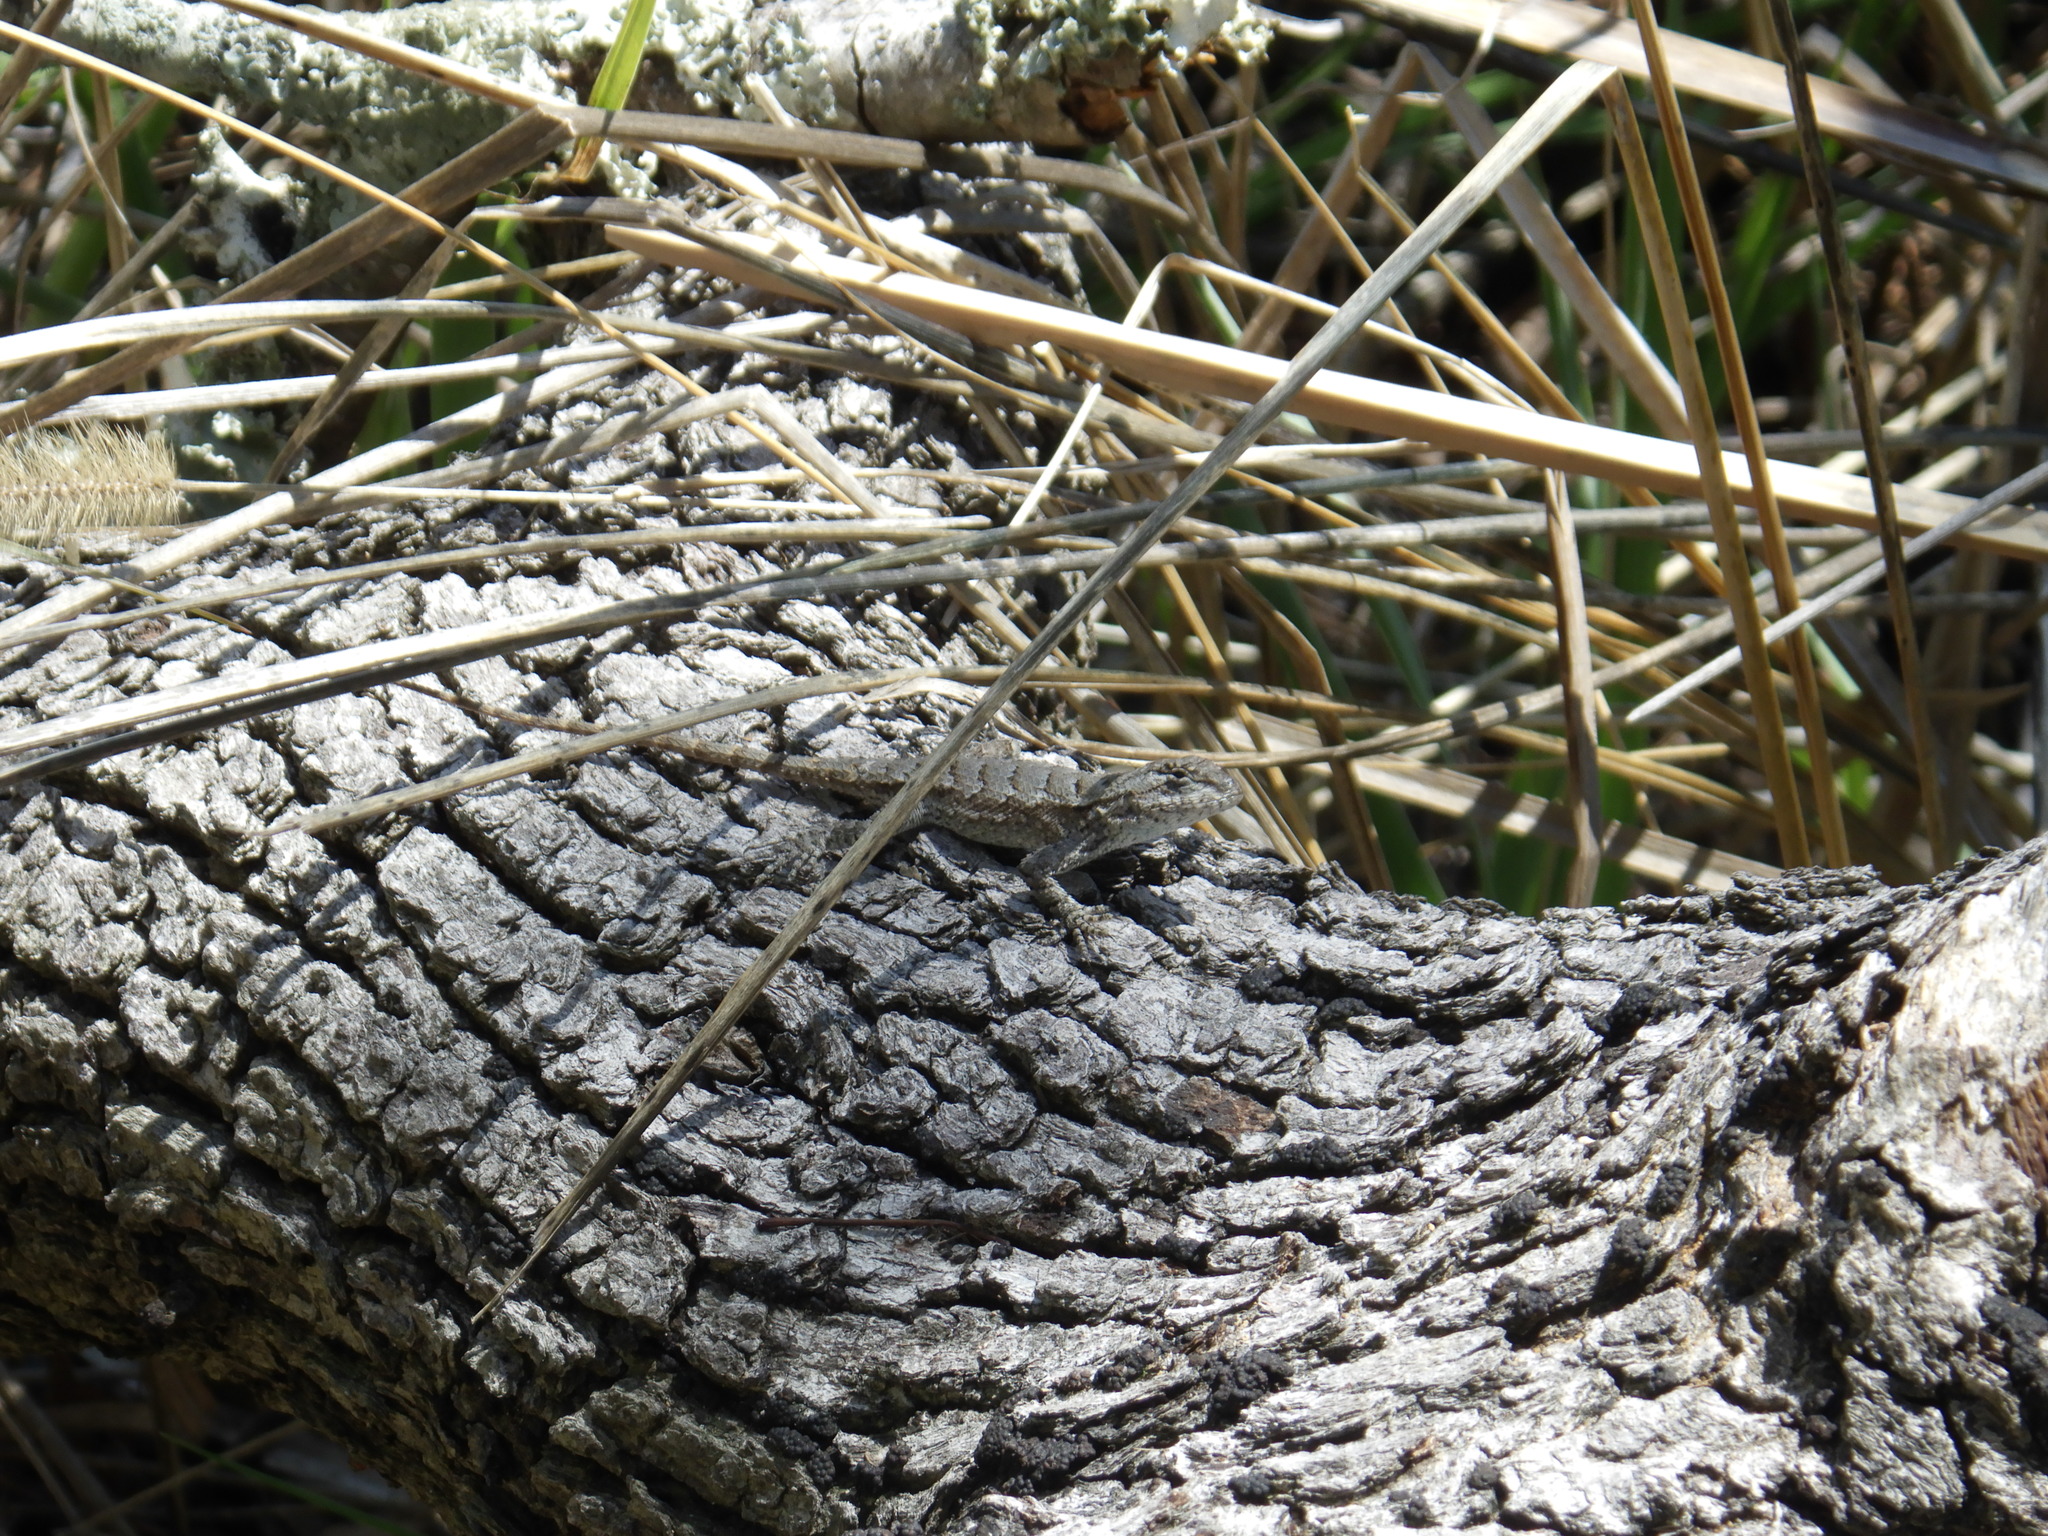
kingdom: Animalia
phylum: Chordata
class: Squamata
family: Phrynosomatidae
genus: Sceloporus
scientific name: Sceloporus undulatus
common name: Eastern fence lizard
